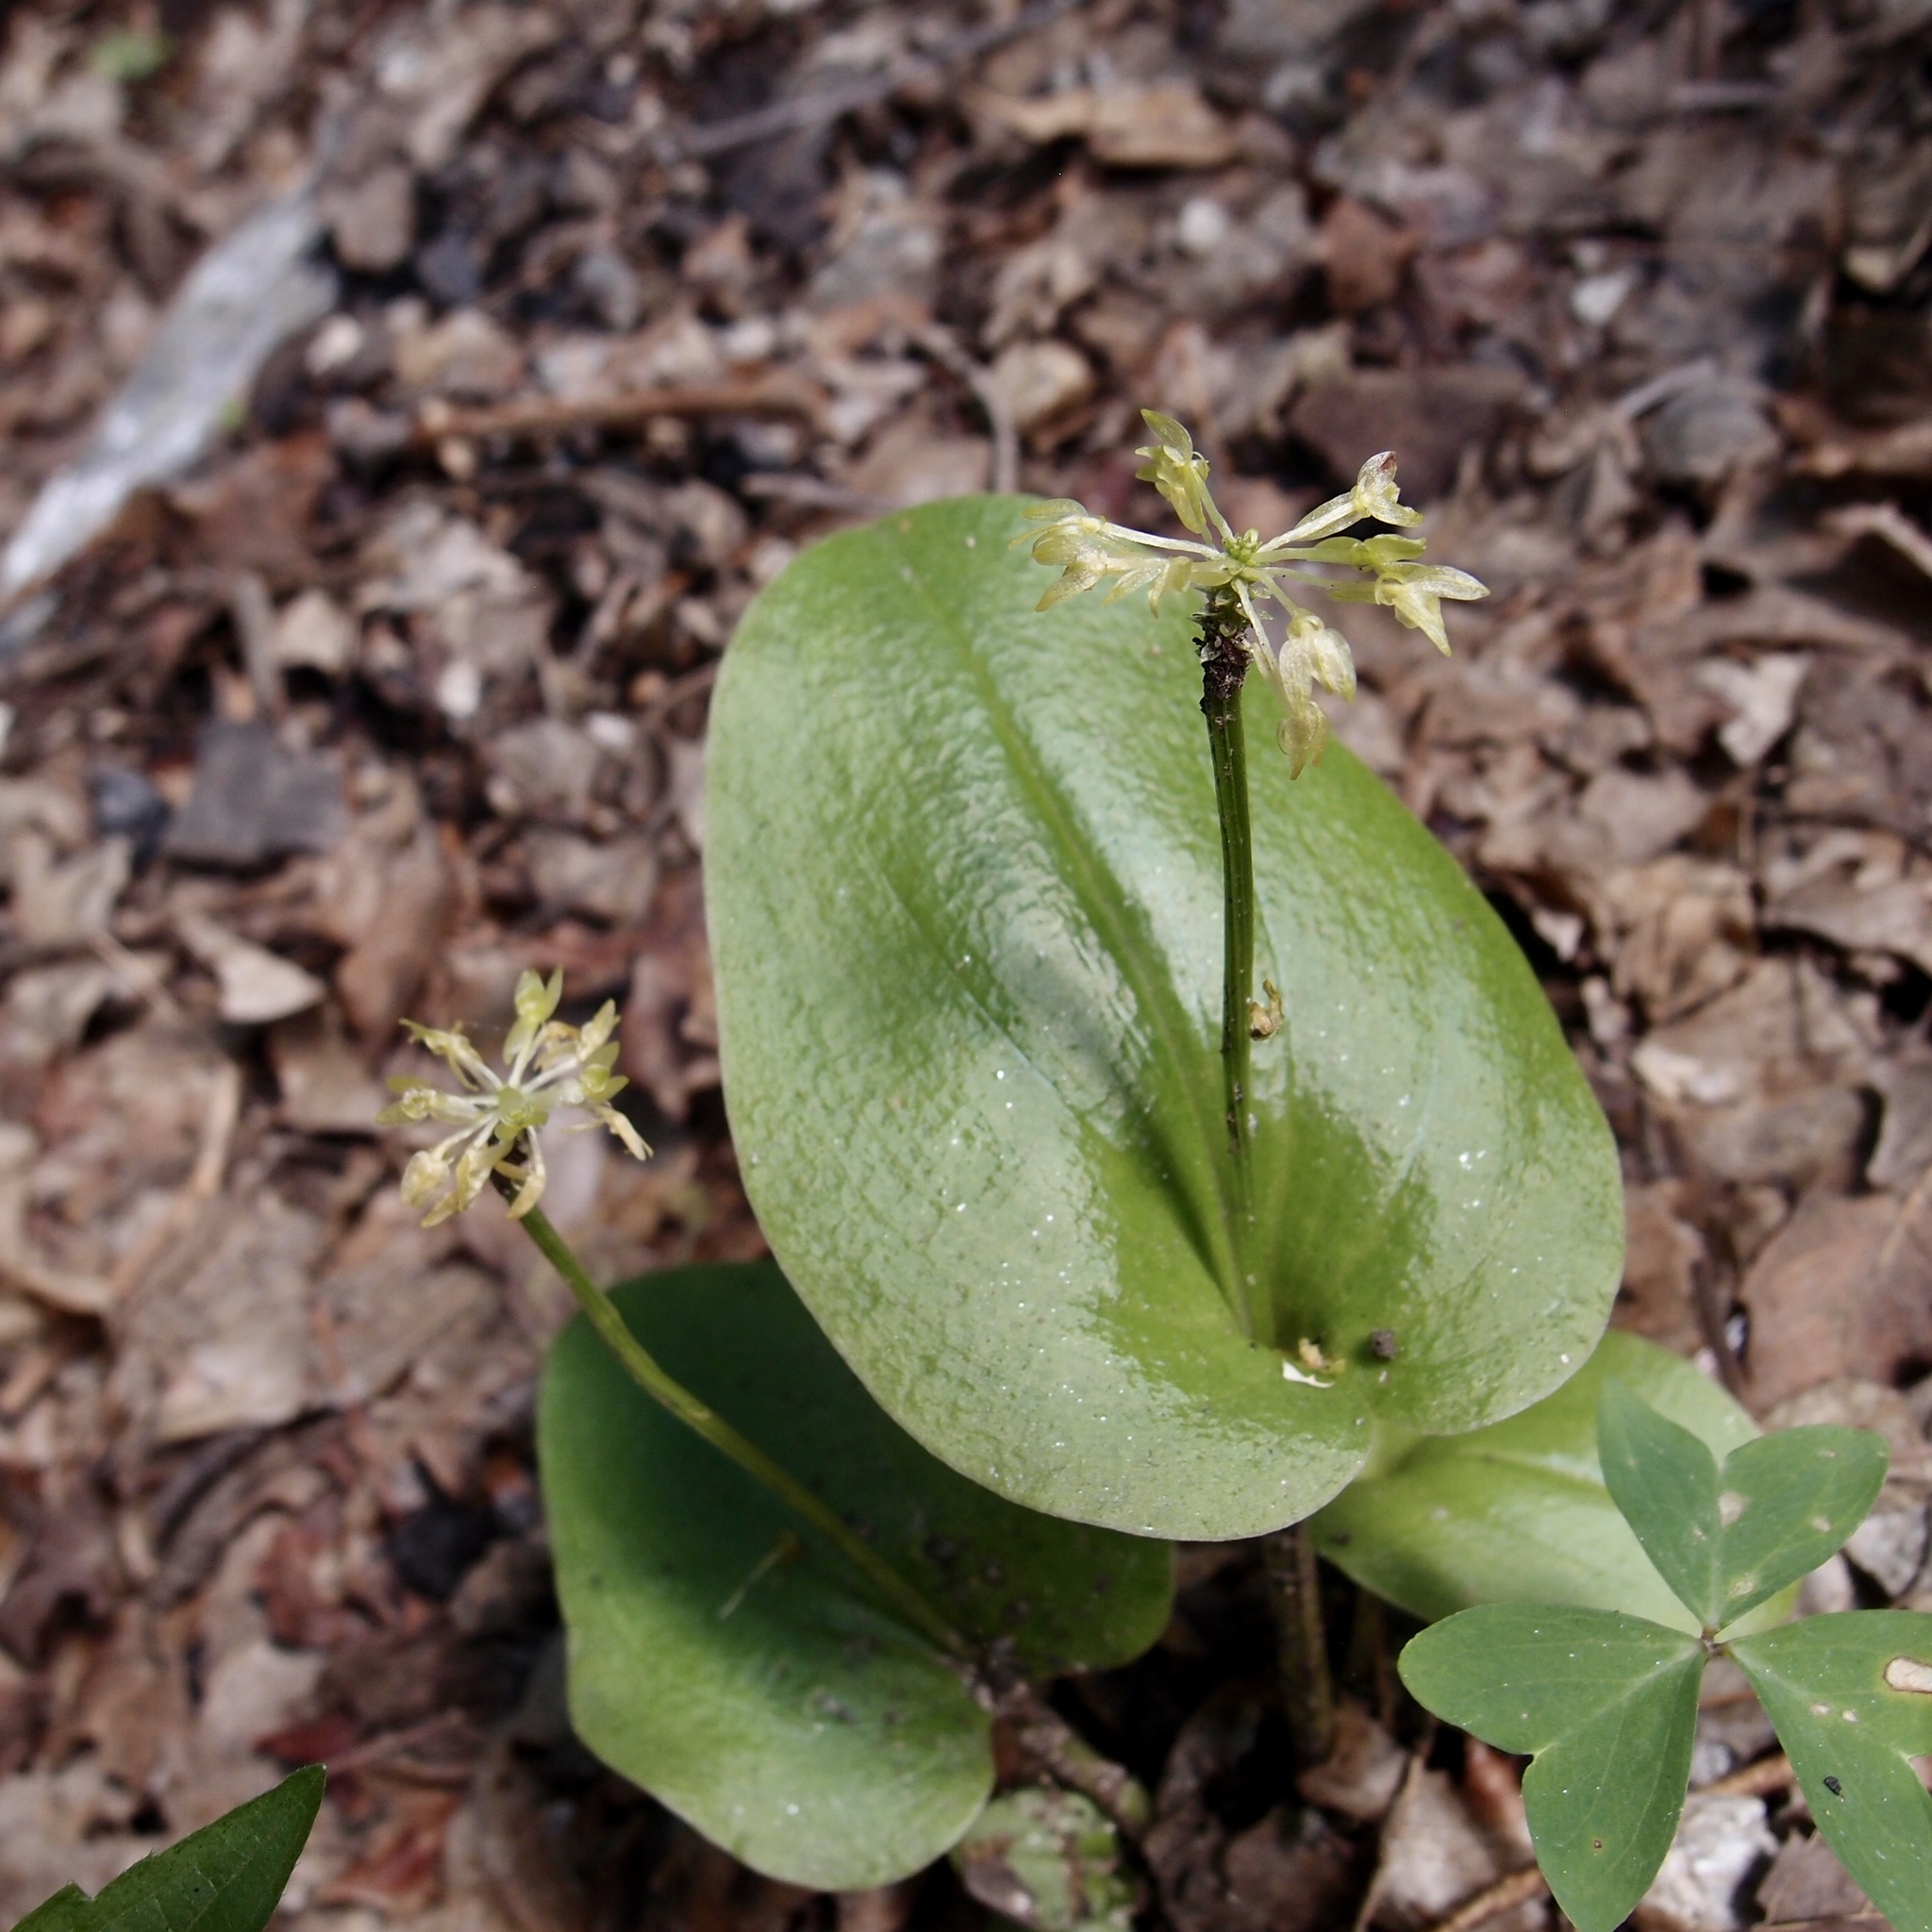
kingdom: Plantae
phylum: Tracheophyta
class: Liliopsida
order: Asparagales
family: Orchidaceae
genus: Malaxis
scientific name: Malaxis brachystachys
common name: Huachuca adder's-mouth
